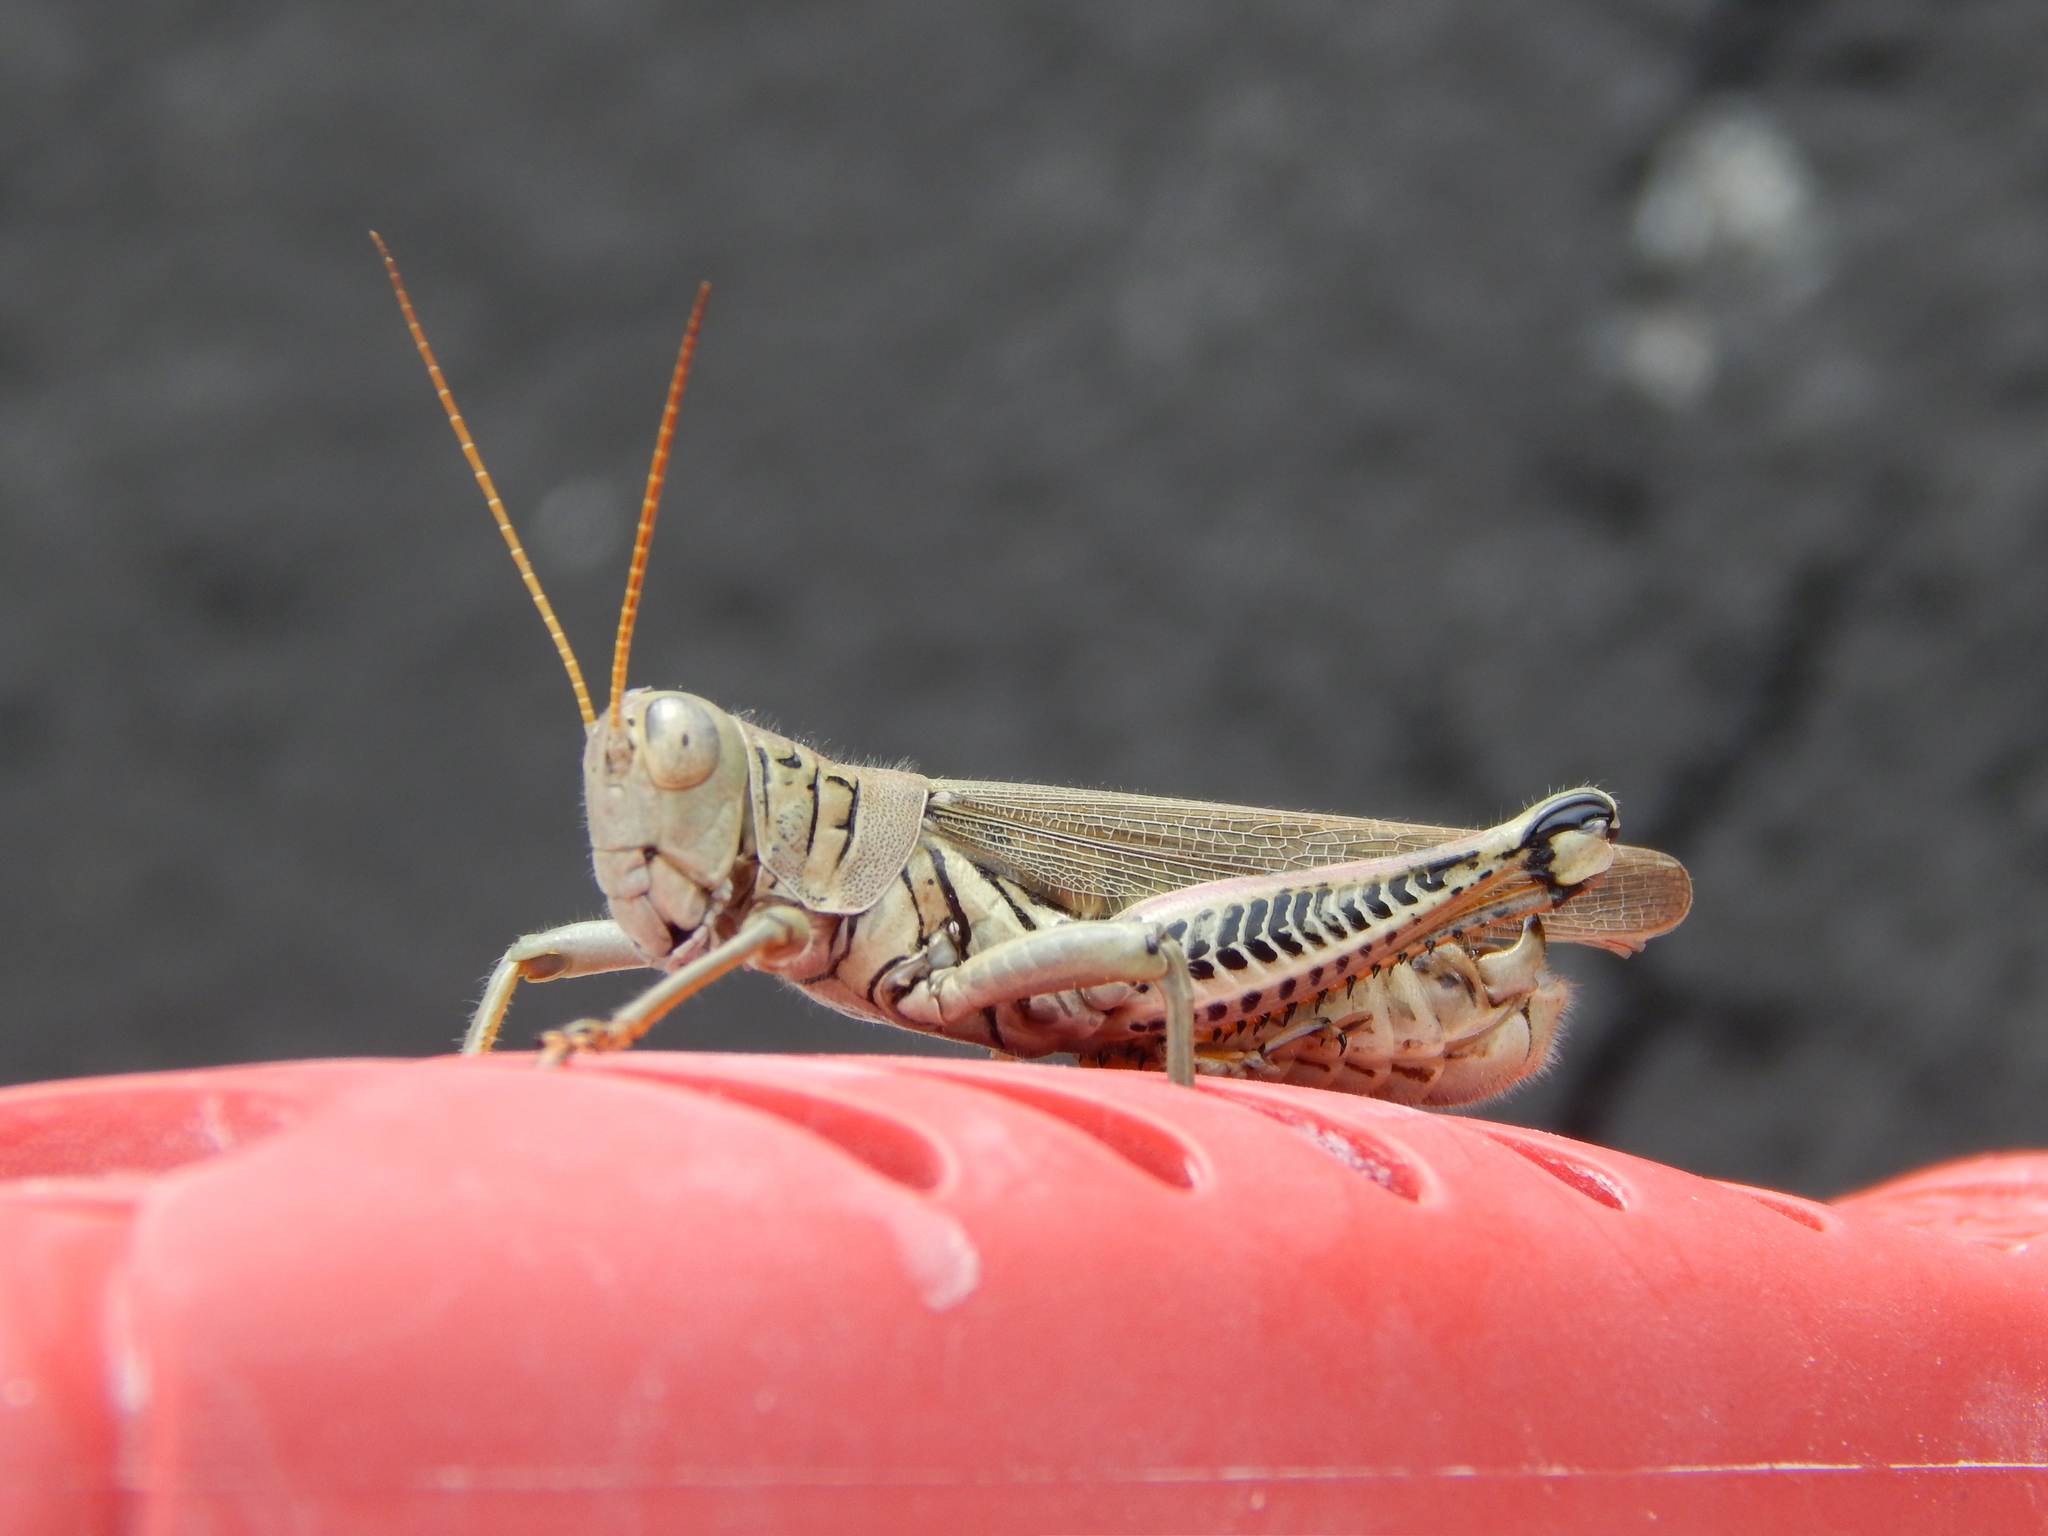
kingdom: Animalia
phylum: Arthropoda
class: Insecta
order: Orthoptera
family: Acrididae
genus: Melanoplus
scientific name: Melanoplus differentialis
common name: Differential grasshopper
